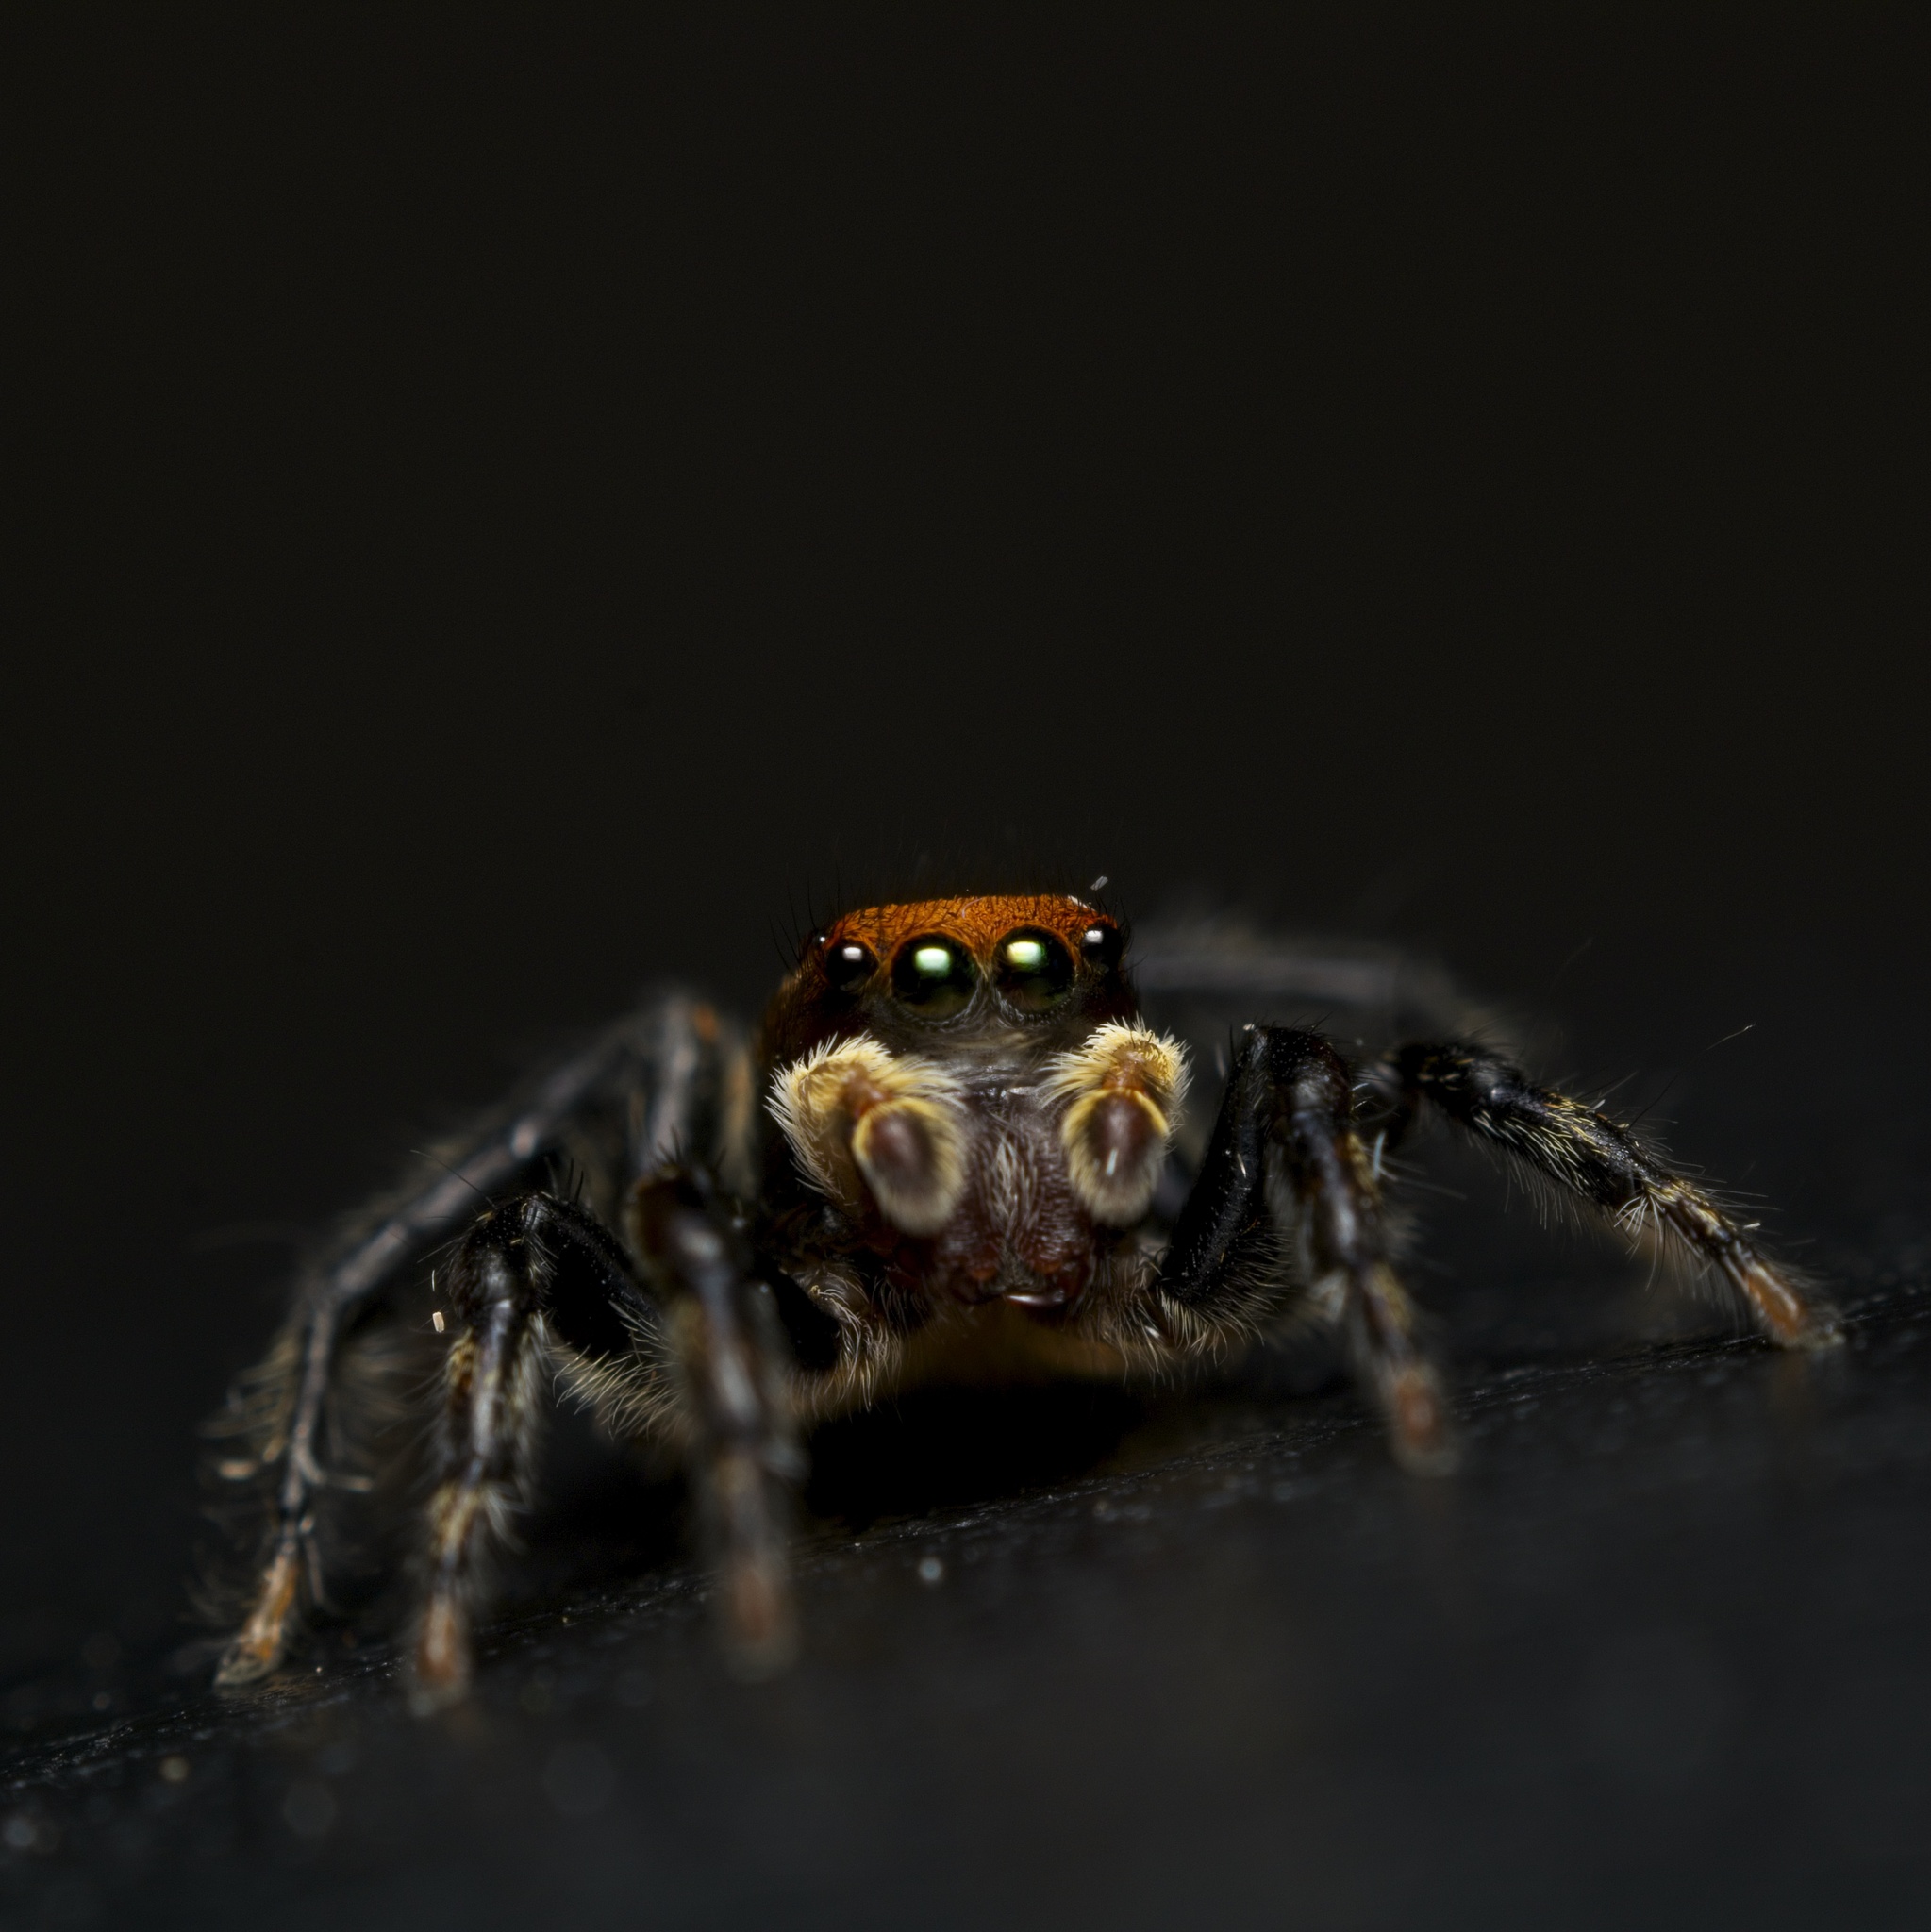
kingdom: Animalia
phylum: Arthropoda
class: Arachnida
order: Araneae
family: Salticidae
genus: Maratus
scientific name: Maratus griseus
